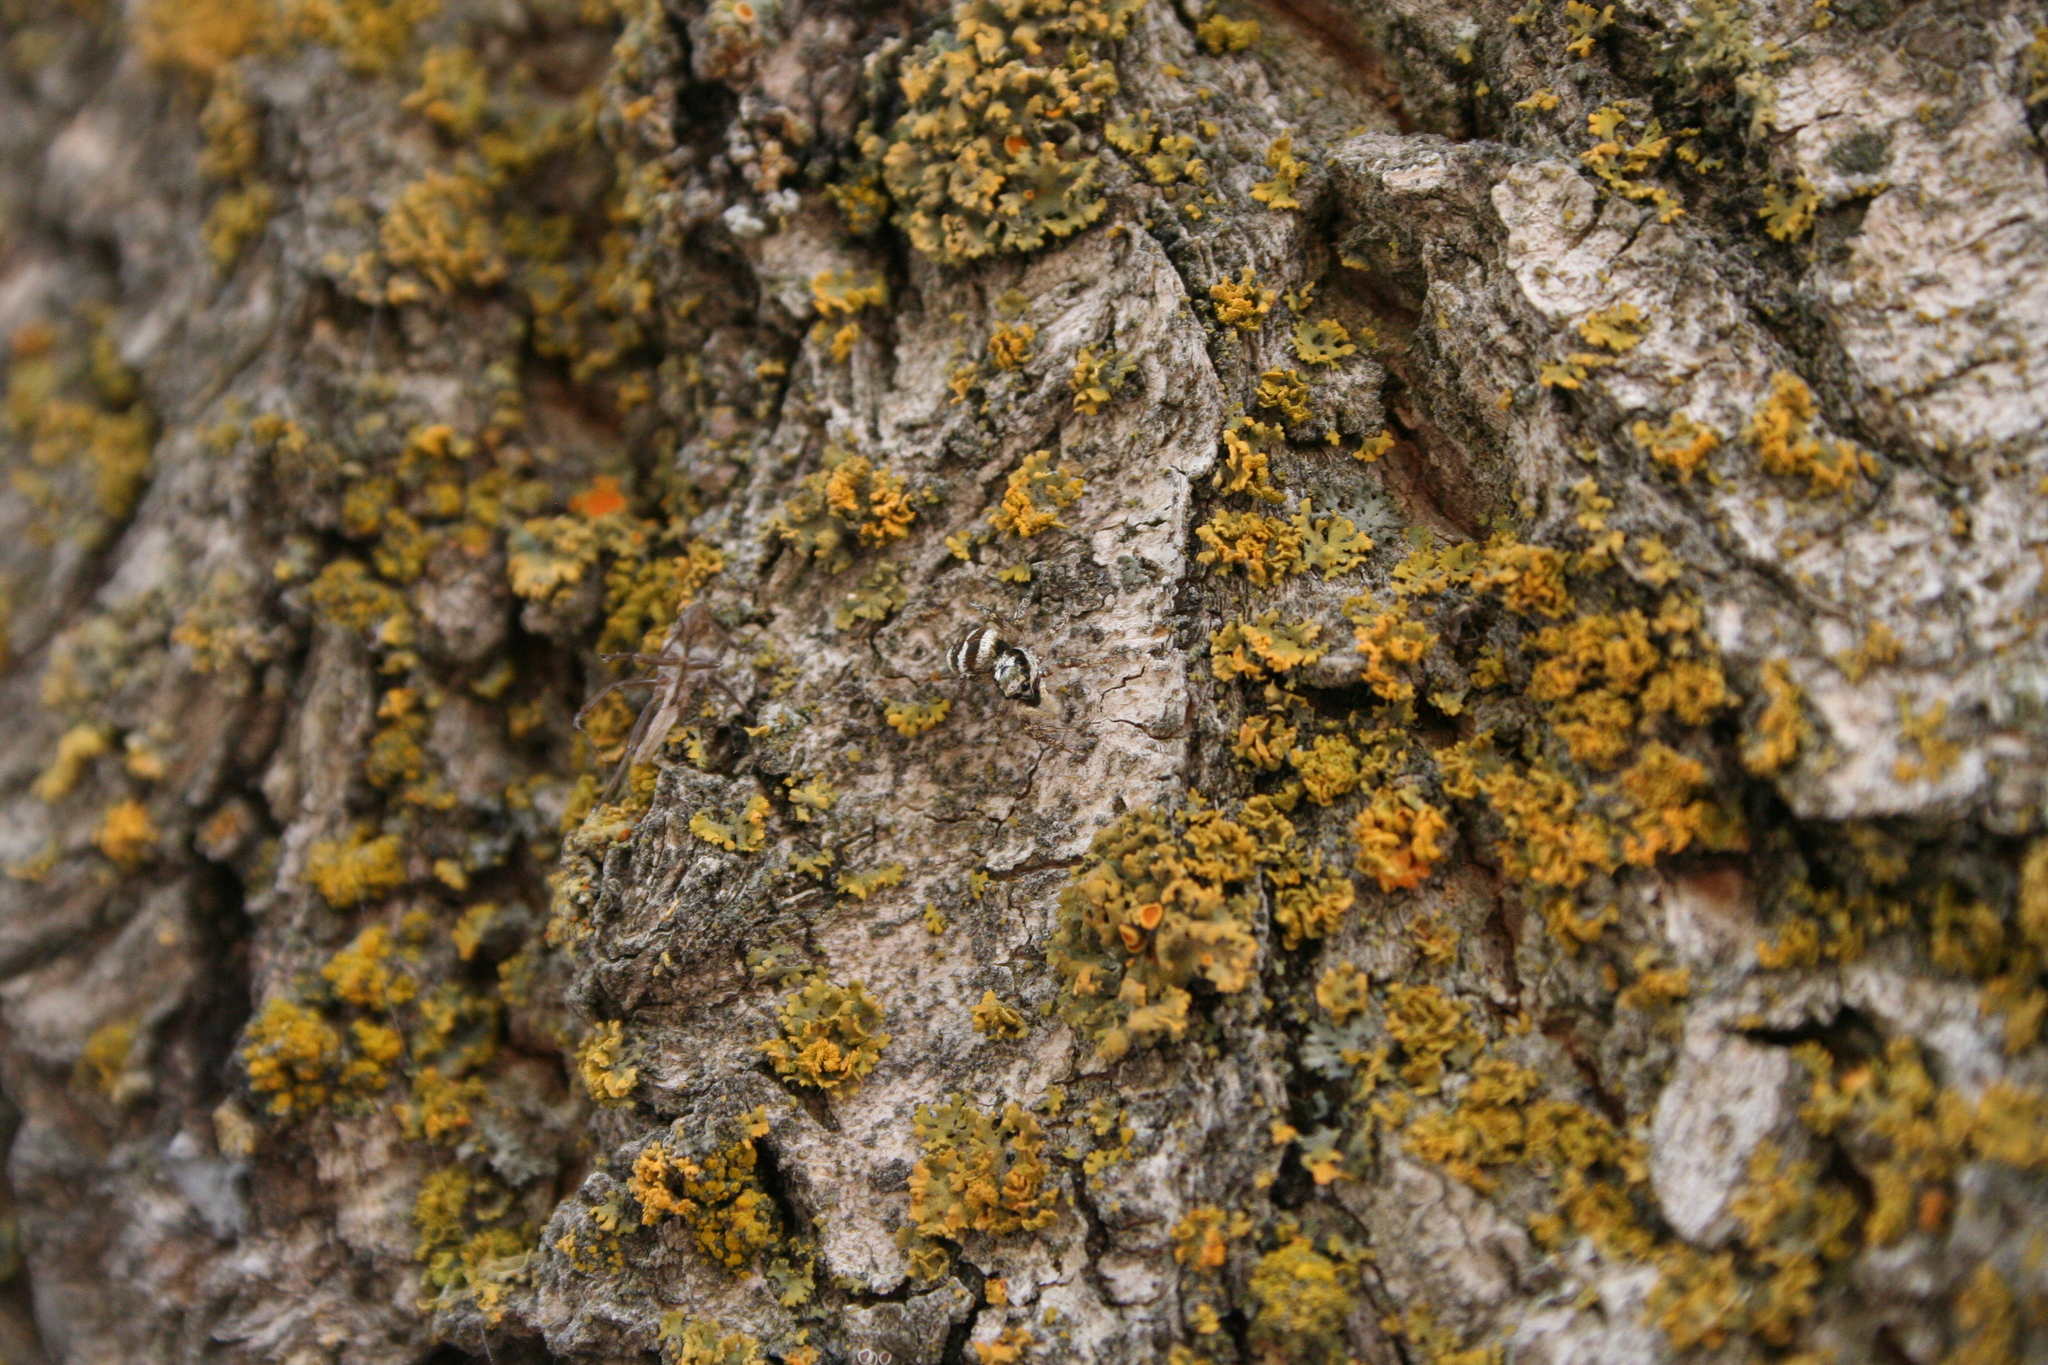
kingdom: Animalia
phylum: Arthropoda
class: Arachnida
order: Araneae
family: Salticidae
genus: Salticus
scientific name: Salticus scenicus
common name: Zebra jumper
